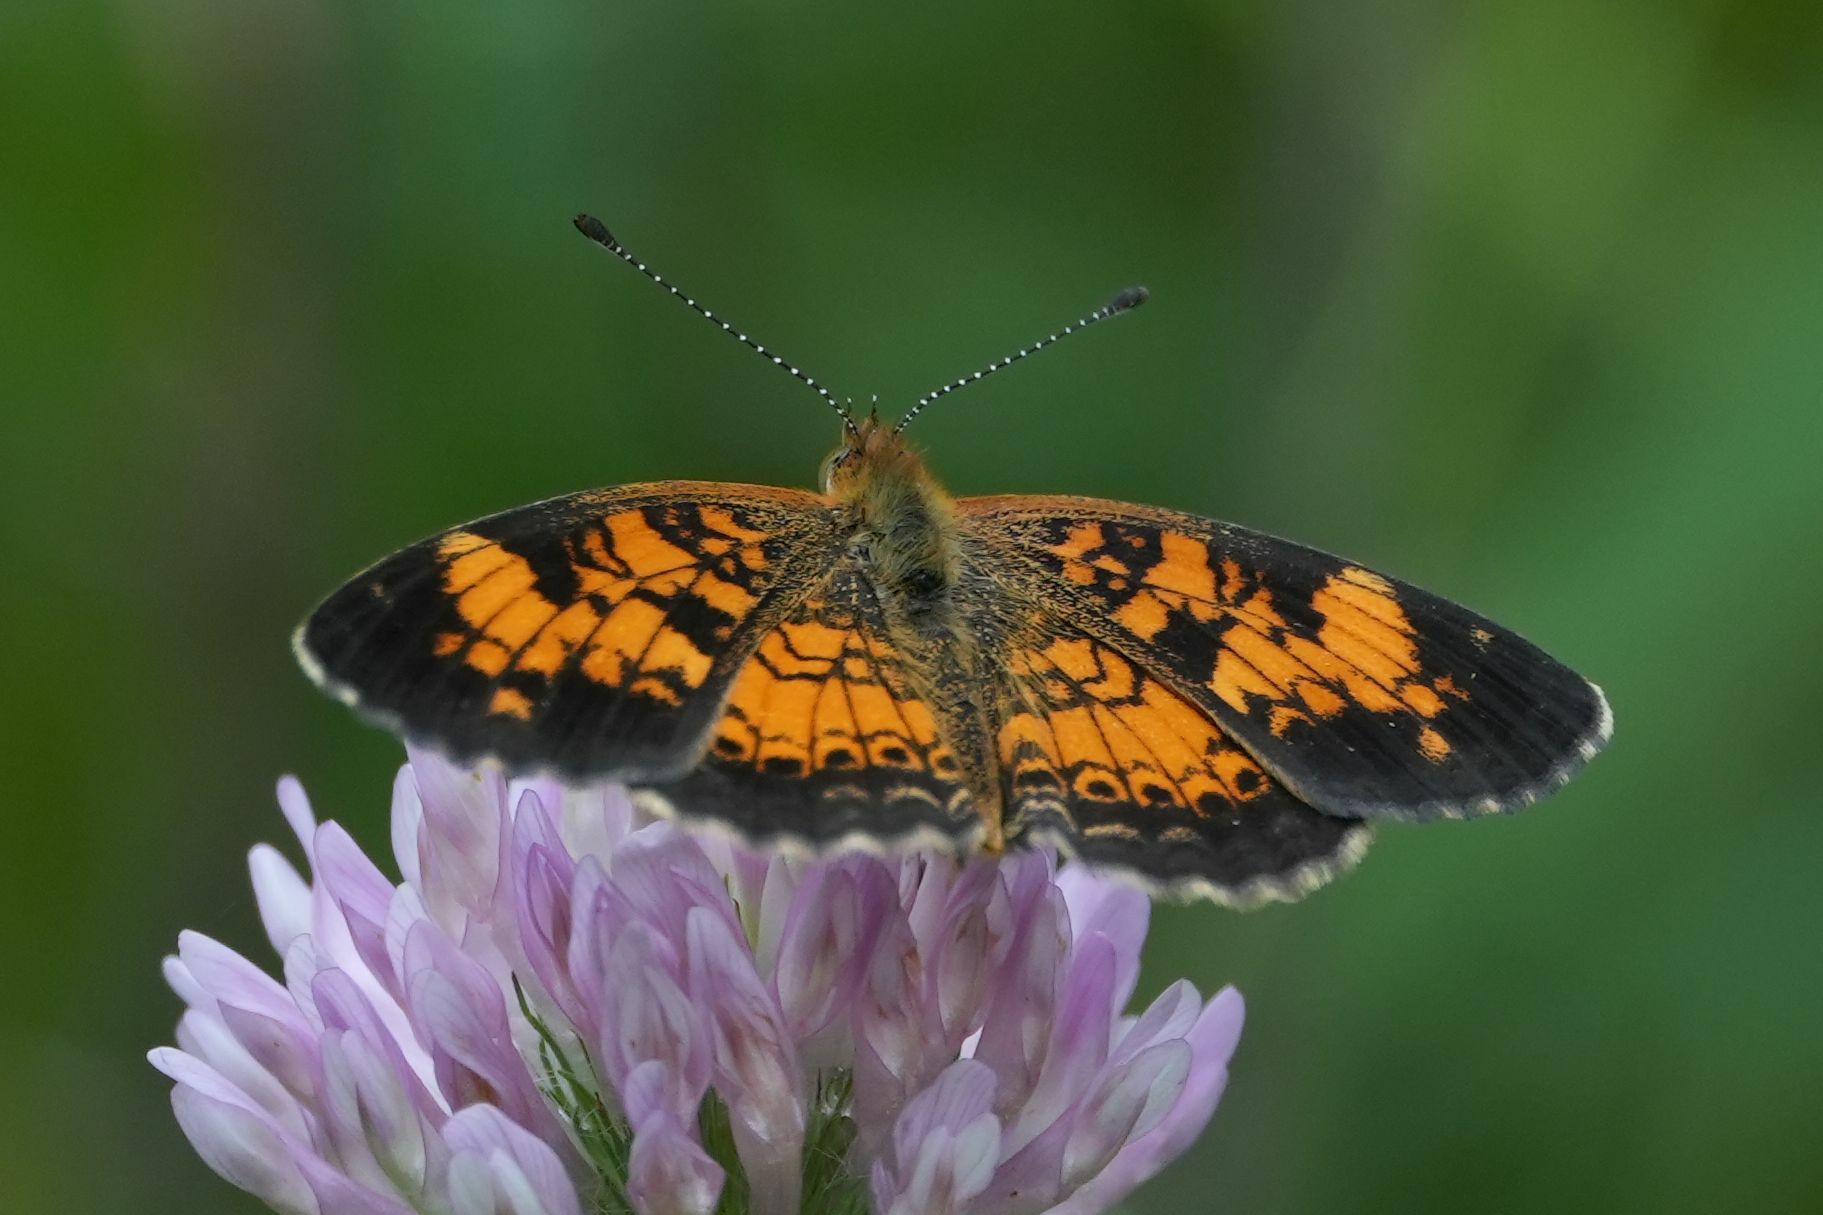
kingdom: Animalia
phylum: Arthropoda
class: Insecta
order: Lepidoptera
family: Nymphalidae
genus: Phyciodes
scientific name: Phyciodes tharos
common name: Pearl crescent
